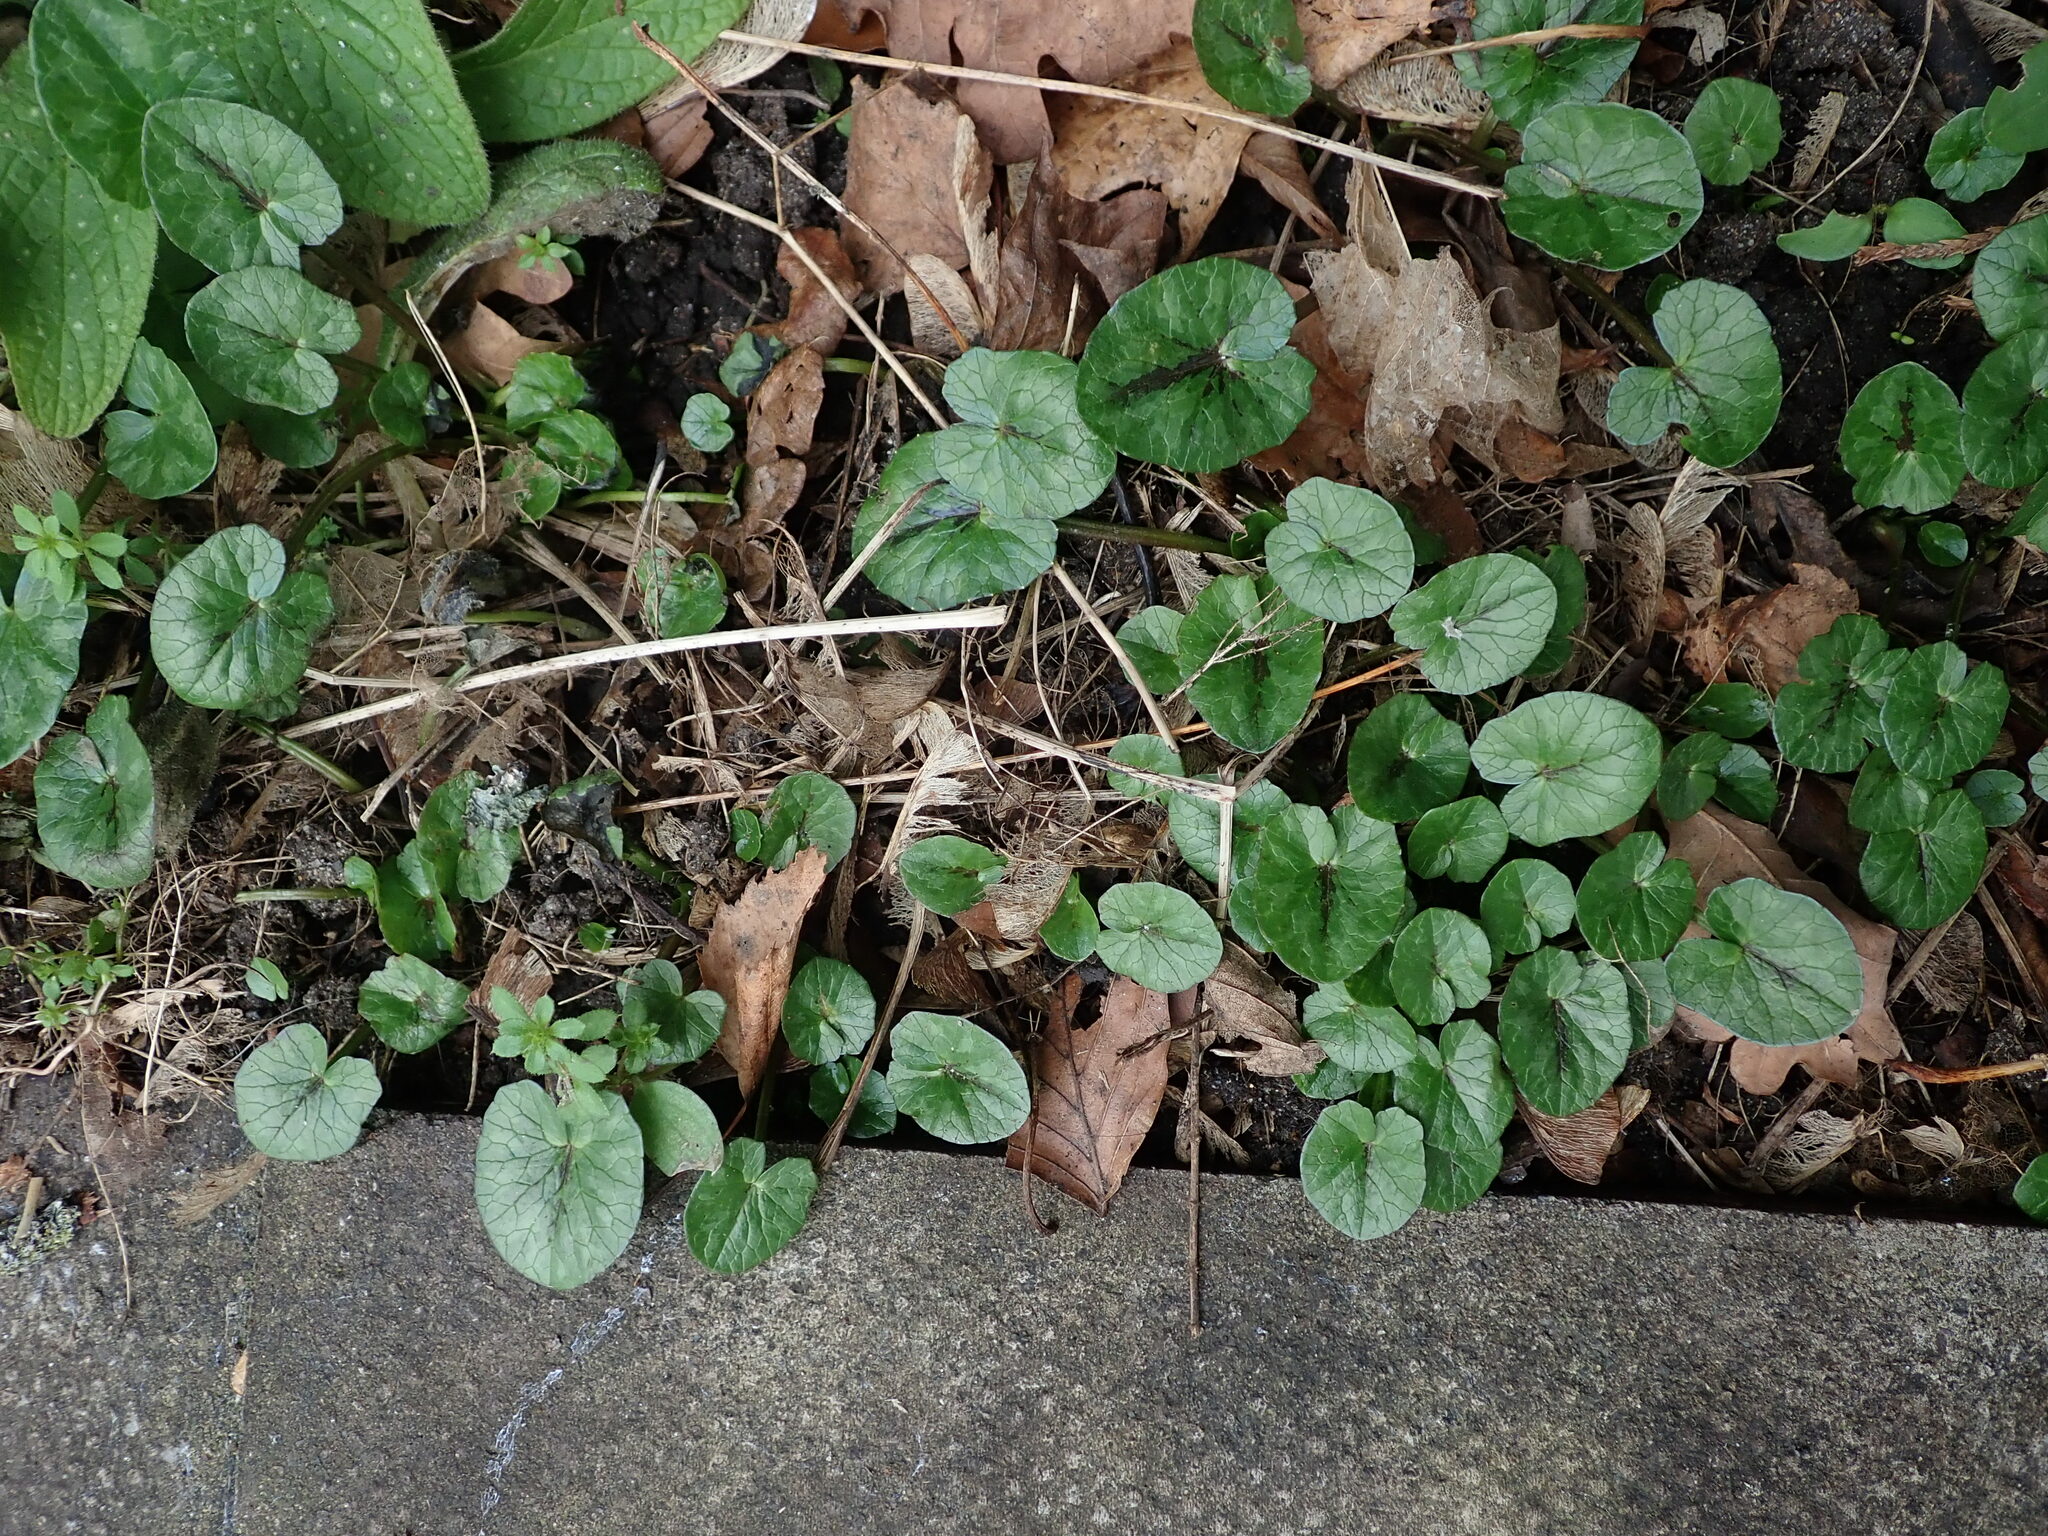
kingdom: Plantae
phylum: Tracheophyta
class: Magnoliopsida
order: Ranunculales
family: Ranunculaceae
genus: Ficaria
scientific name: Ficaria verna
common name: Lesser celandine
